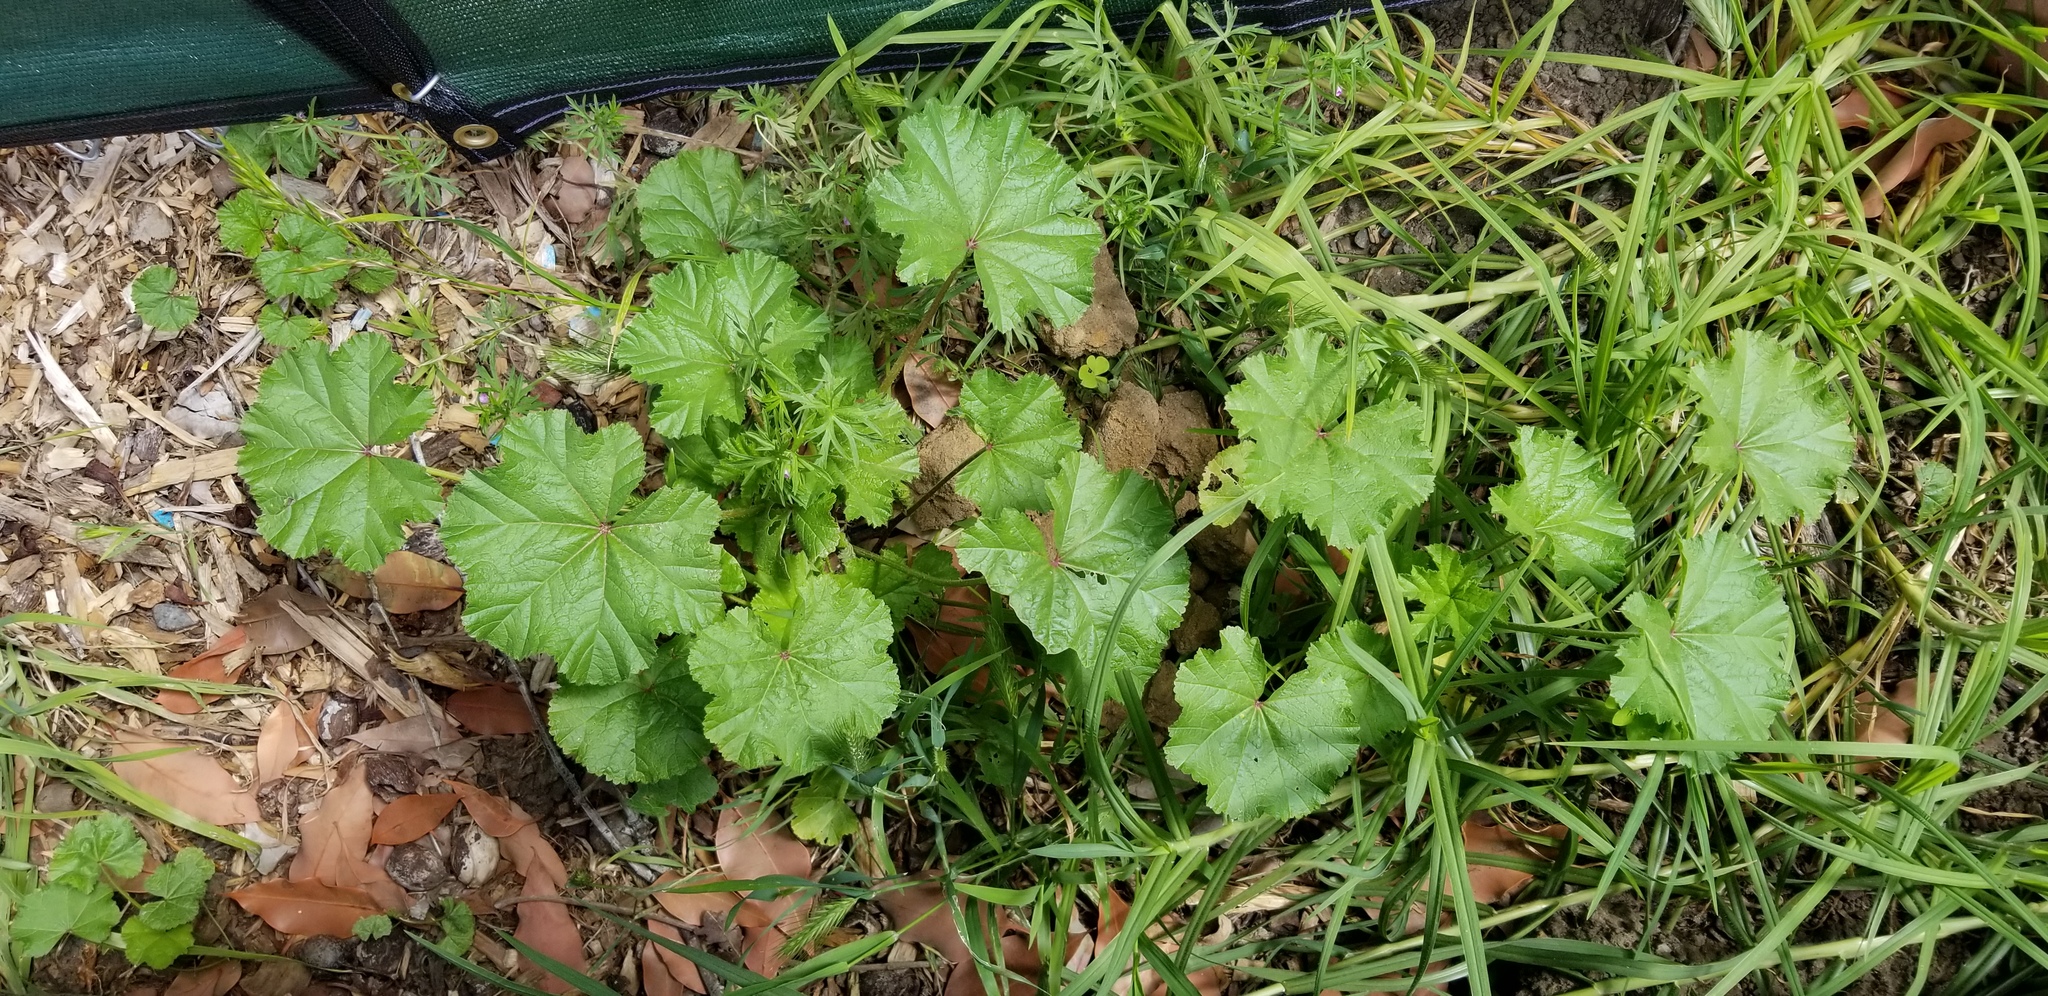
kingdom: Plantae
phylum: Tracheophyta
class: Magnoliopsida
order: Malvales
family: Malvaceae
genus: Malva
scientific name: Malva
